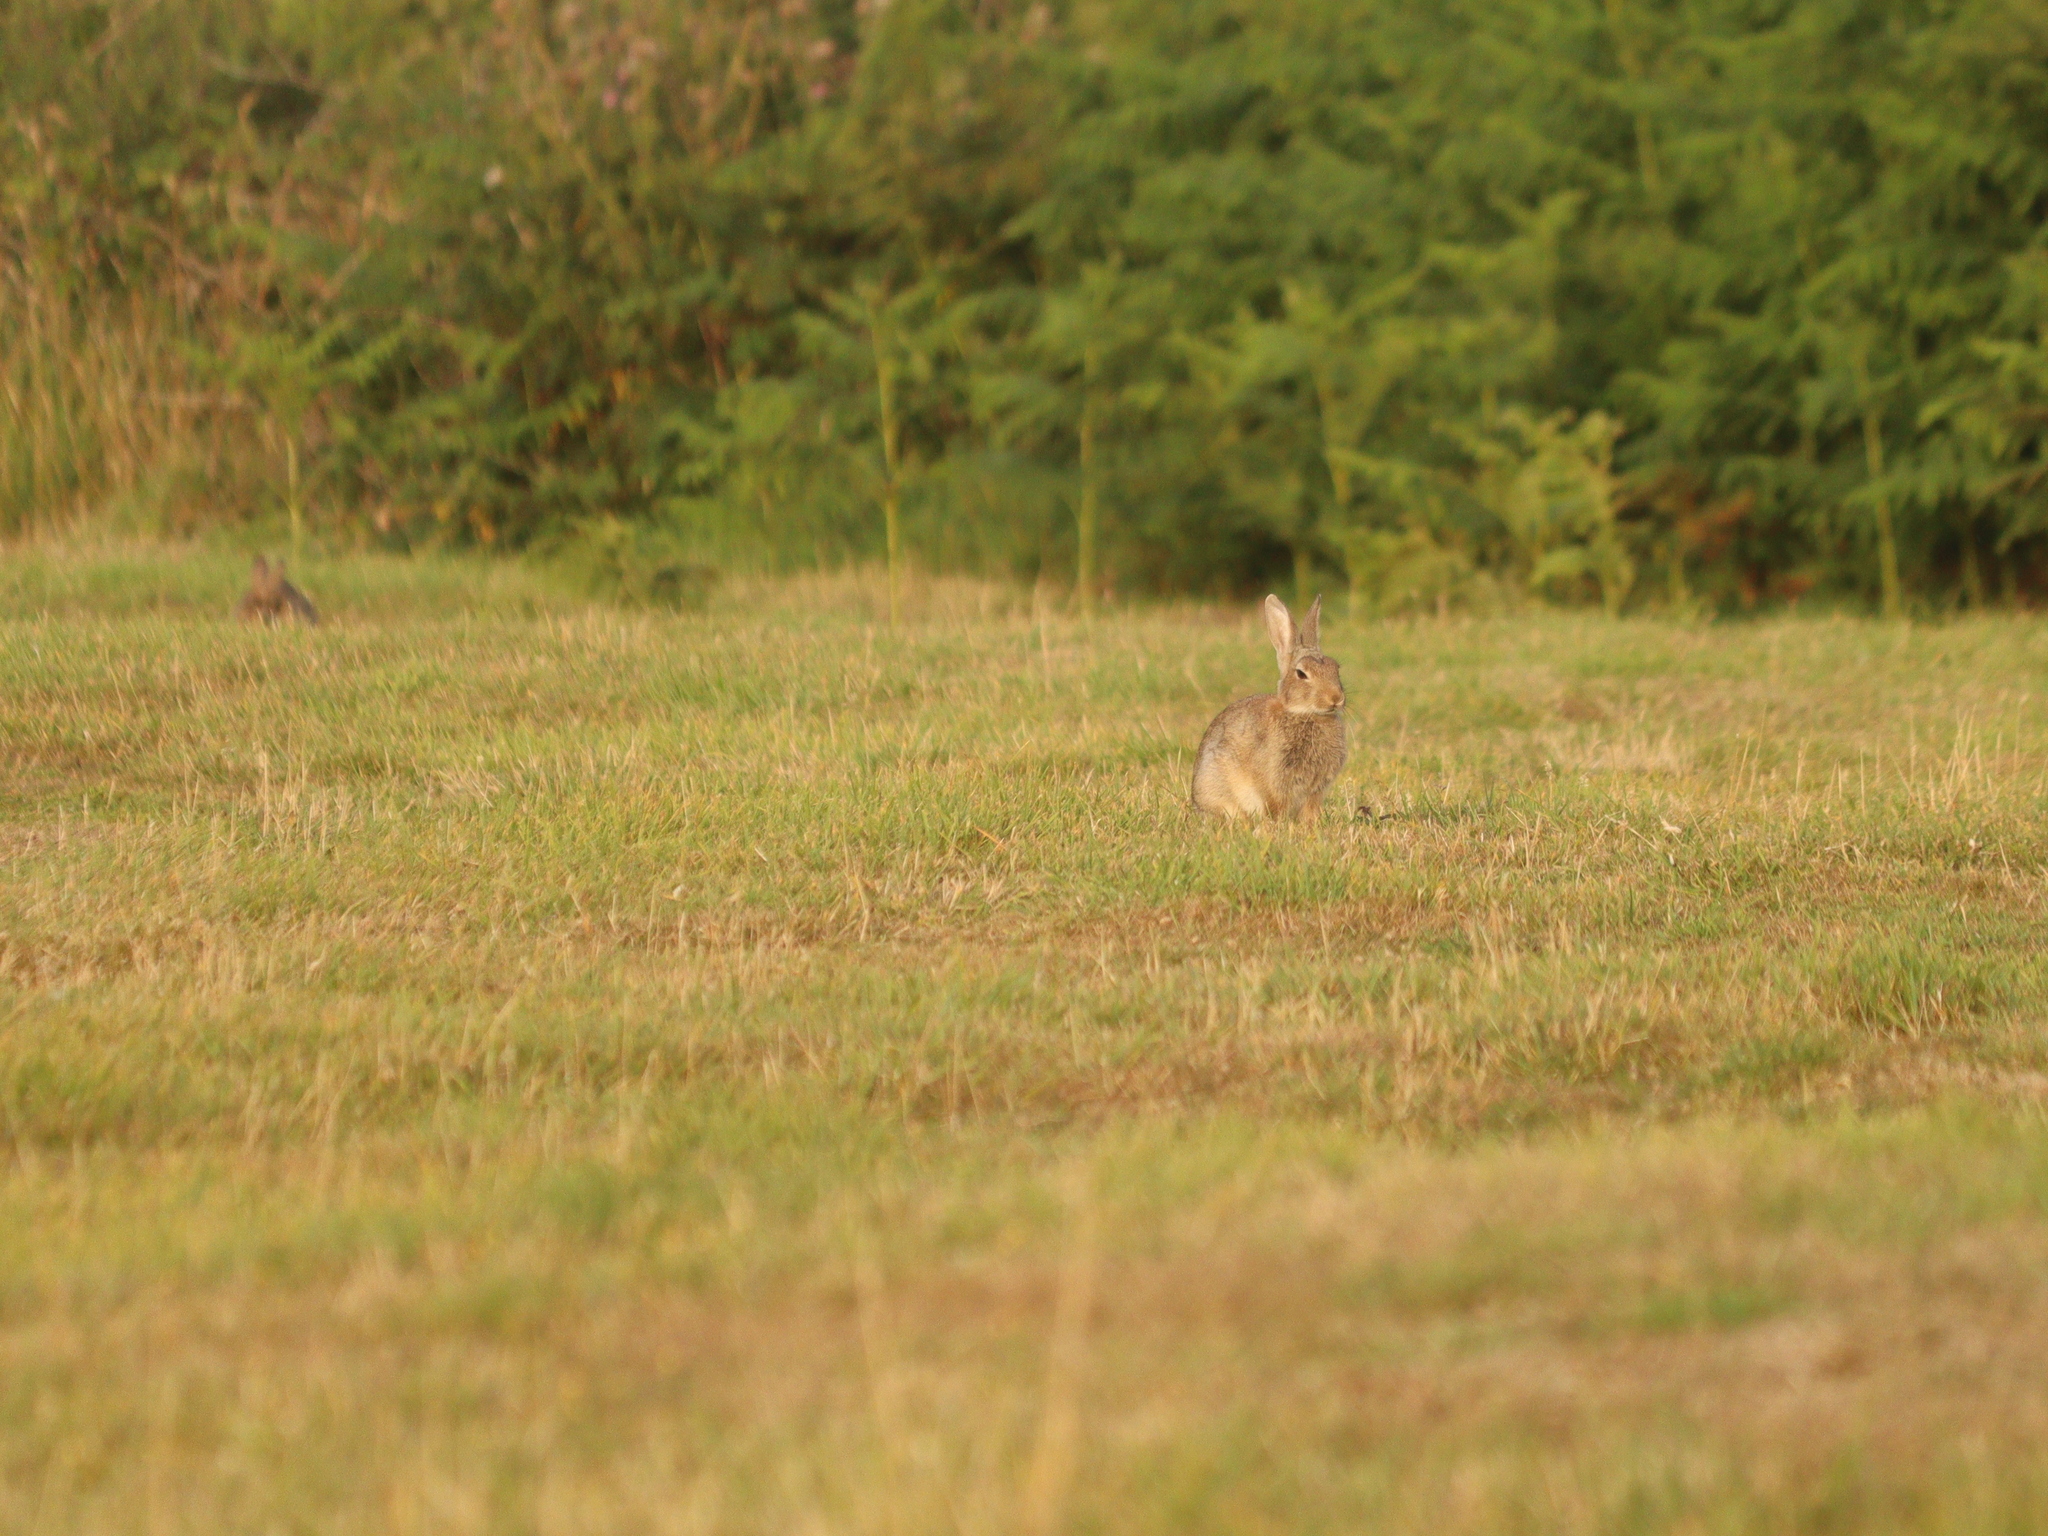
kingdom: Animalia
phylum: Chordata
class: Mammalia
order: Lagomorpha
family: Leporidae
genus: Oryctolagus
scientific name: Oryctolagus cuniculus
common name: European rabbit
